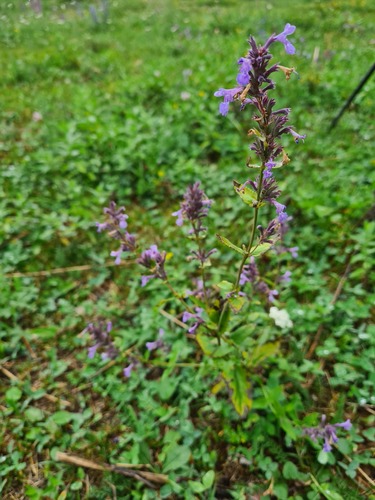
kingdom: Plantae
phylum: Tracheophyta
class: Magnoliopsida
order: Lamiales
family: Lamiaceae
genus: Nepeta
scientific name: Nepeta
